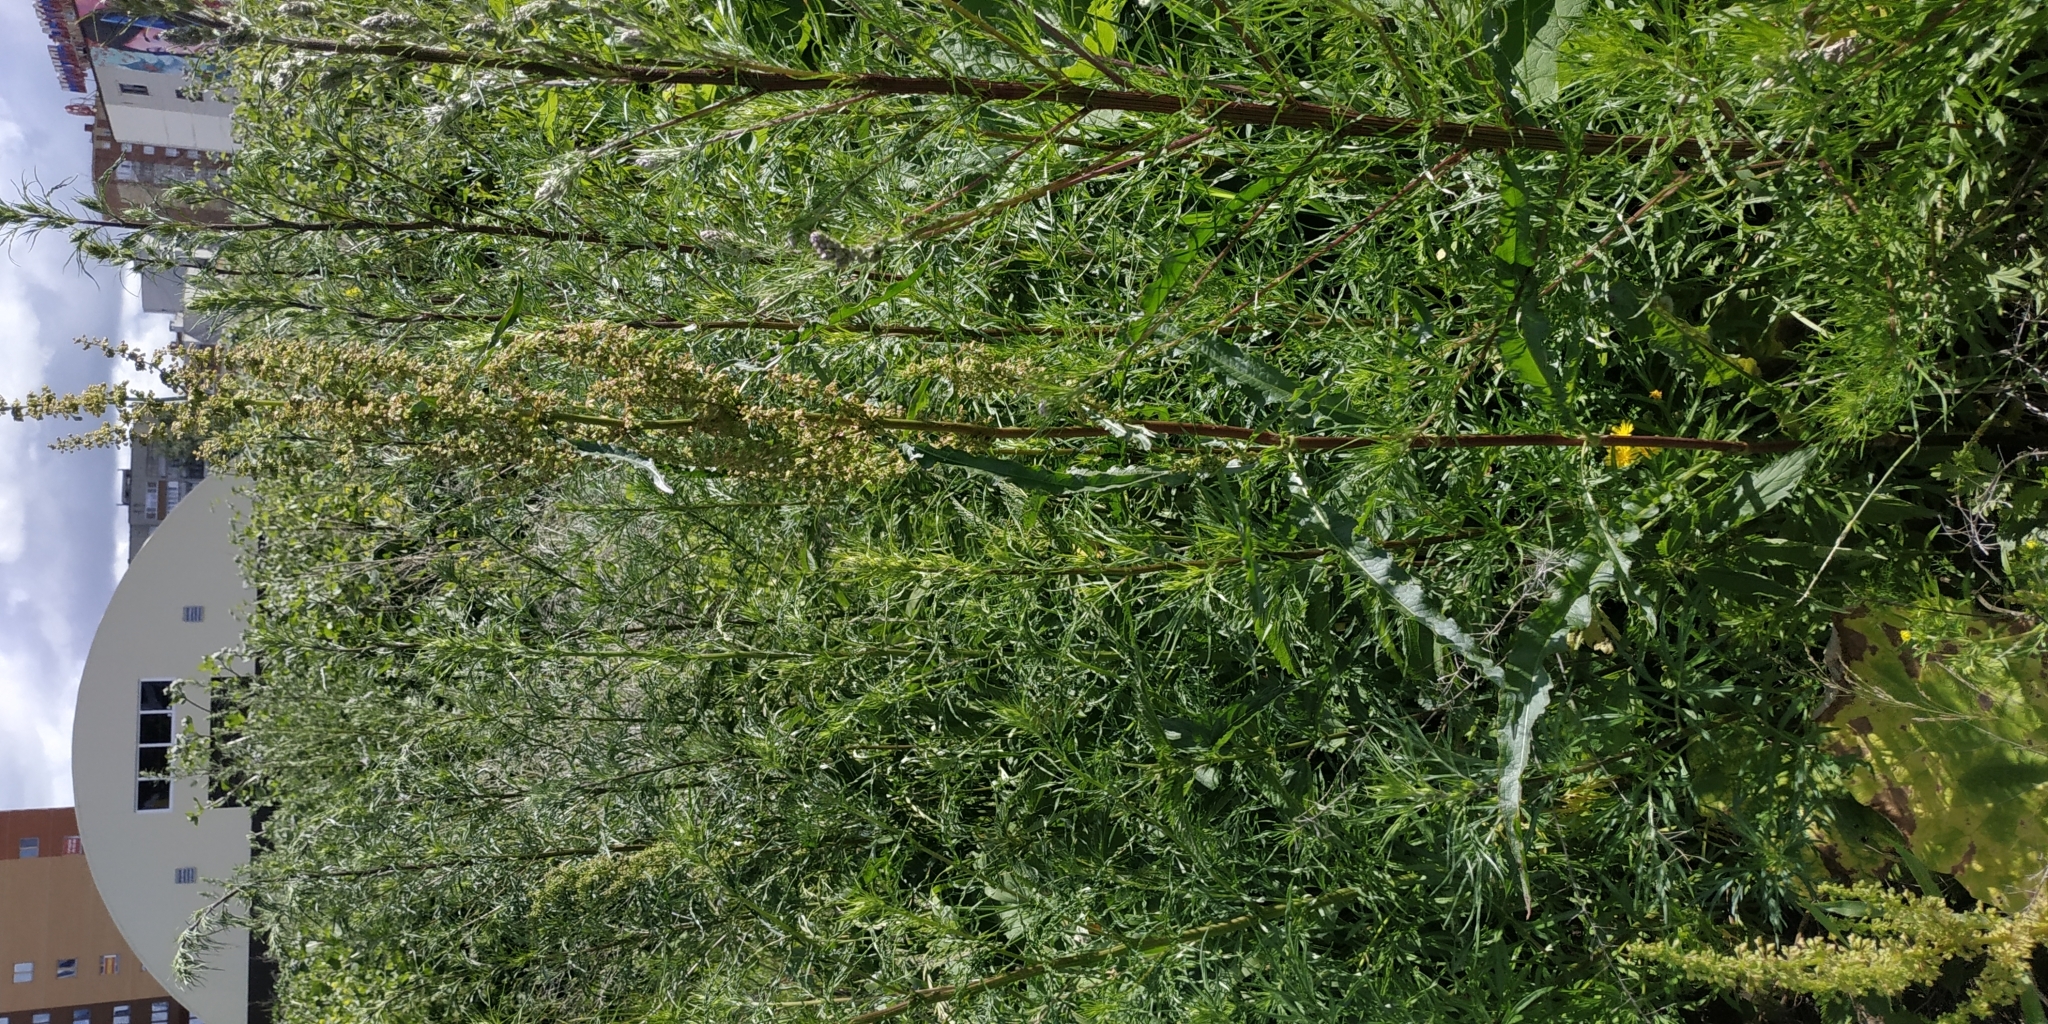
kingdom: Plantae
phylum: Tracheophyta
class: Magnoliopsida
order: Caryophyllales
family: Polygonaceae
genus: Rumex
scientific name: Rumex pseudonatronatus
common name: Field dock
